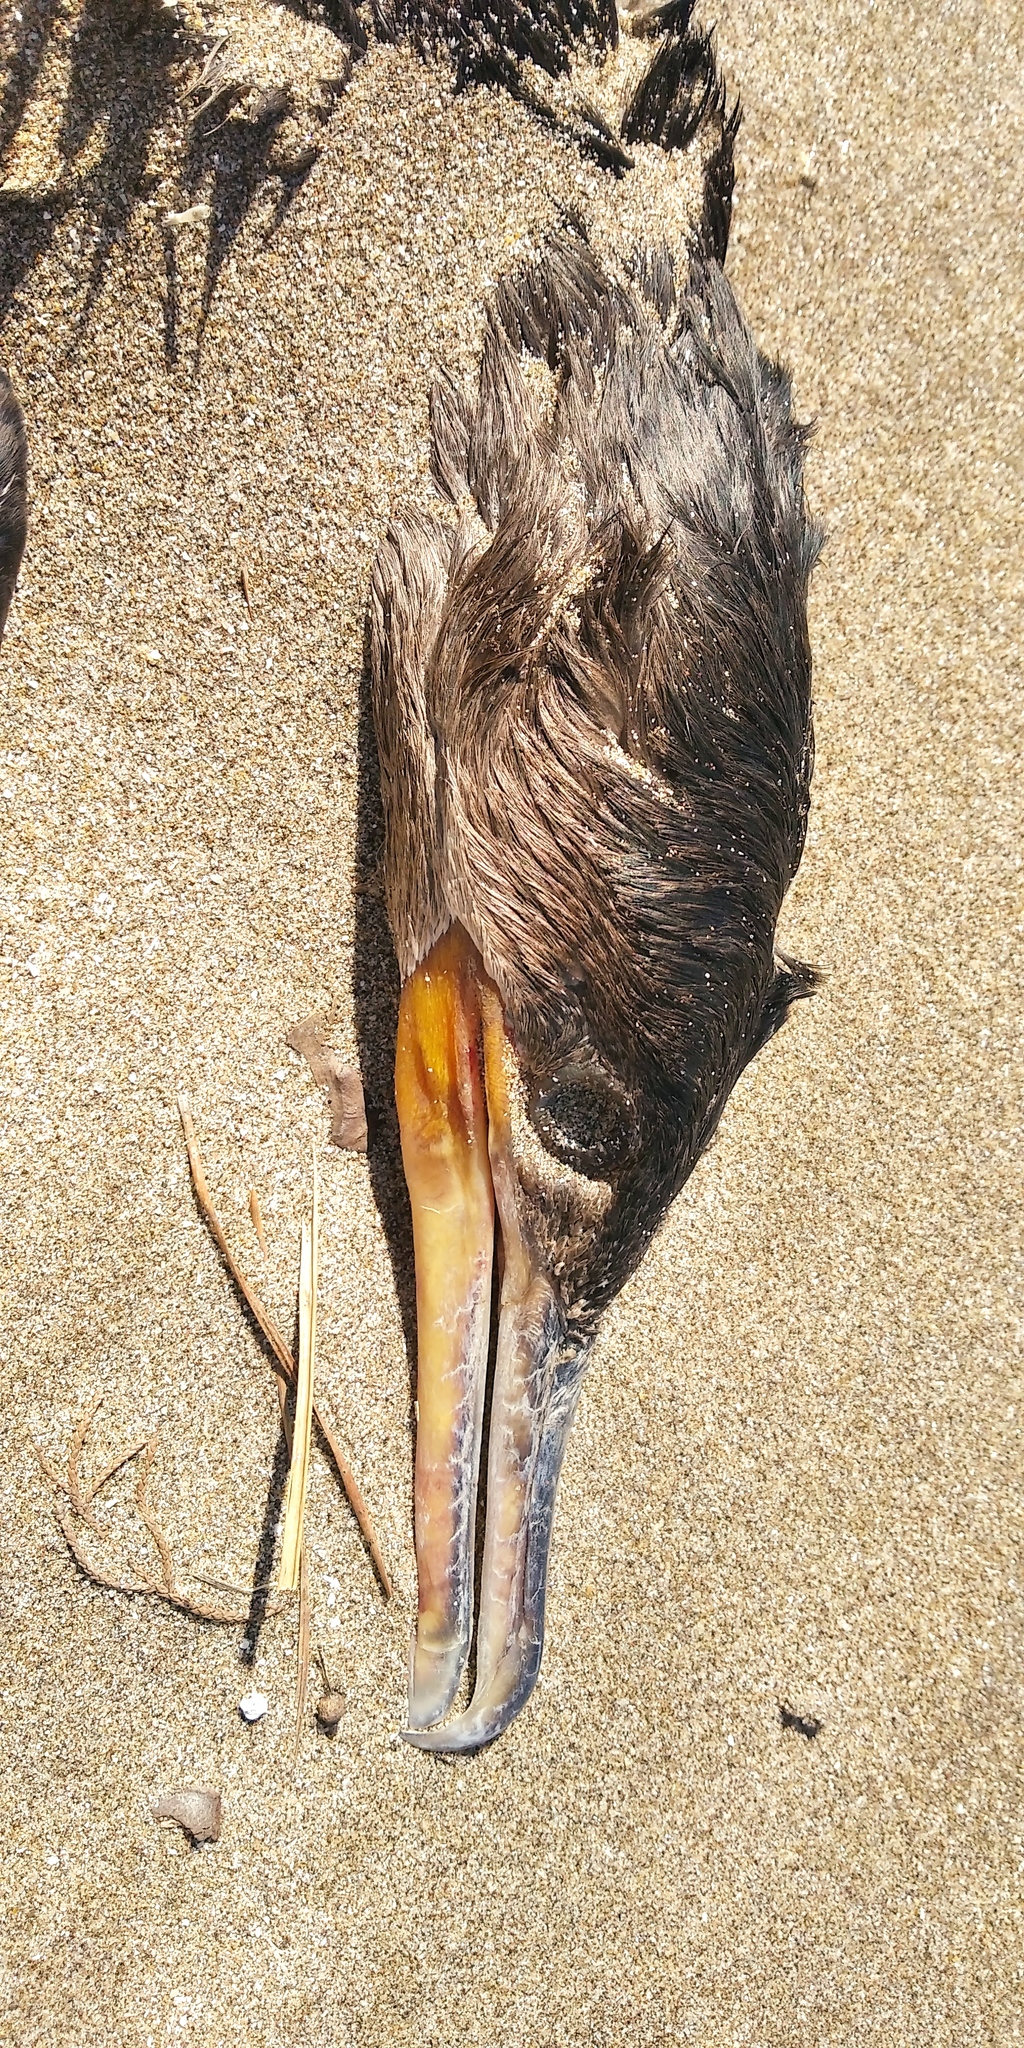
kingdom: Animalia
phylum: Chordata
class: Aves
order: Suliformes
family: Phalacrocoracidae
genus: Phalacrocorax
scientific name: Phalacrocorax brasilianus
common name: Neotropic cormorant
